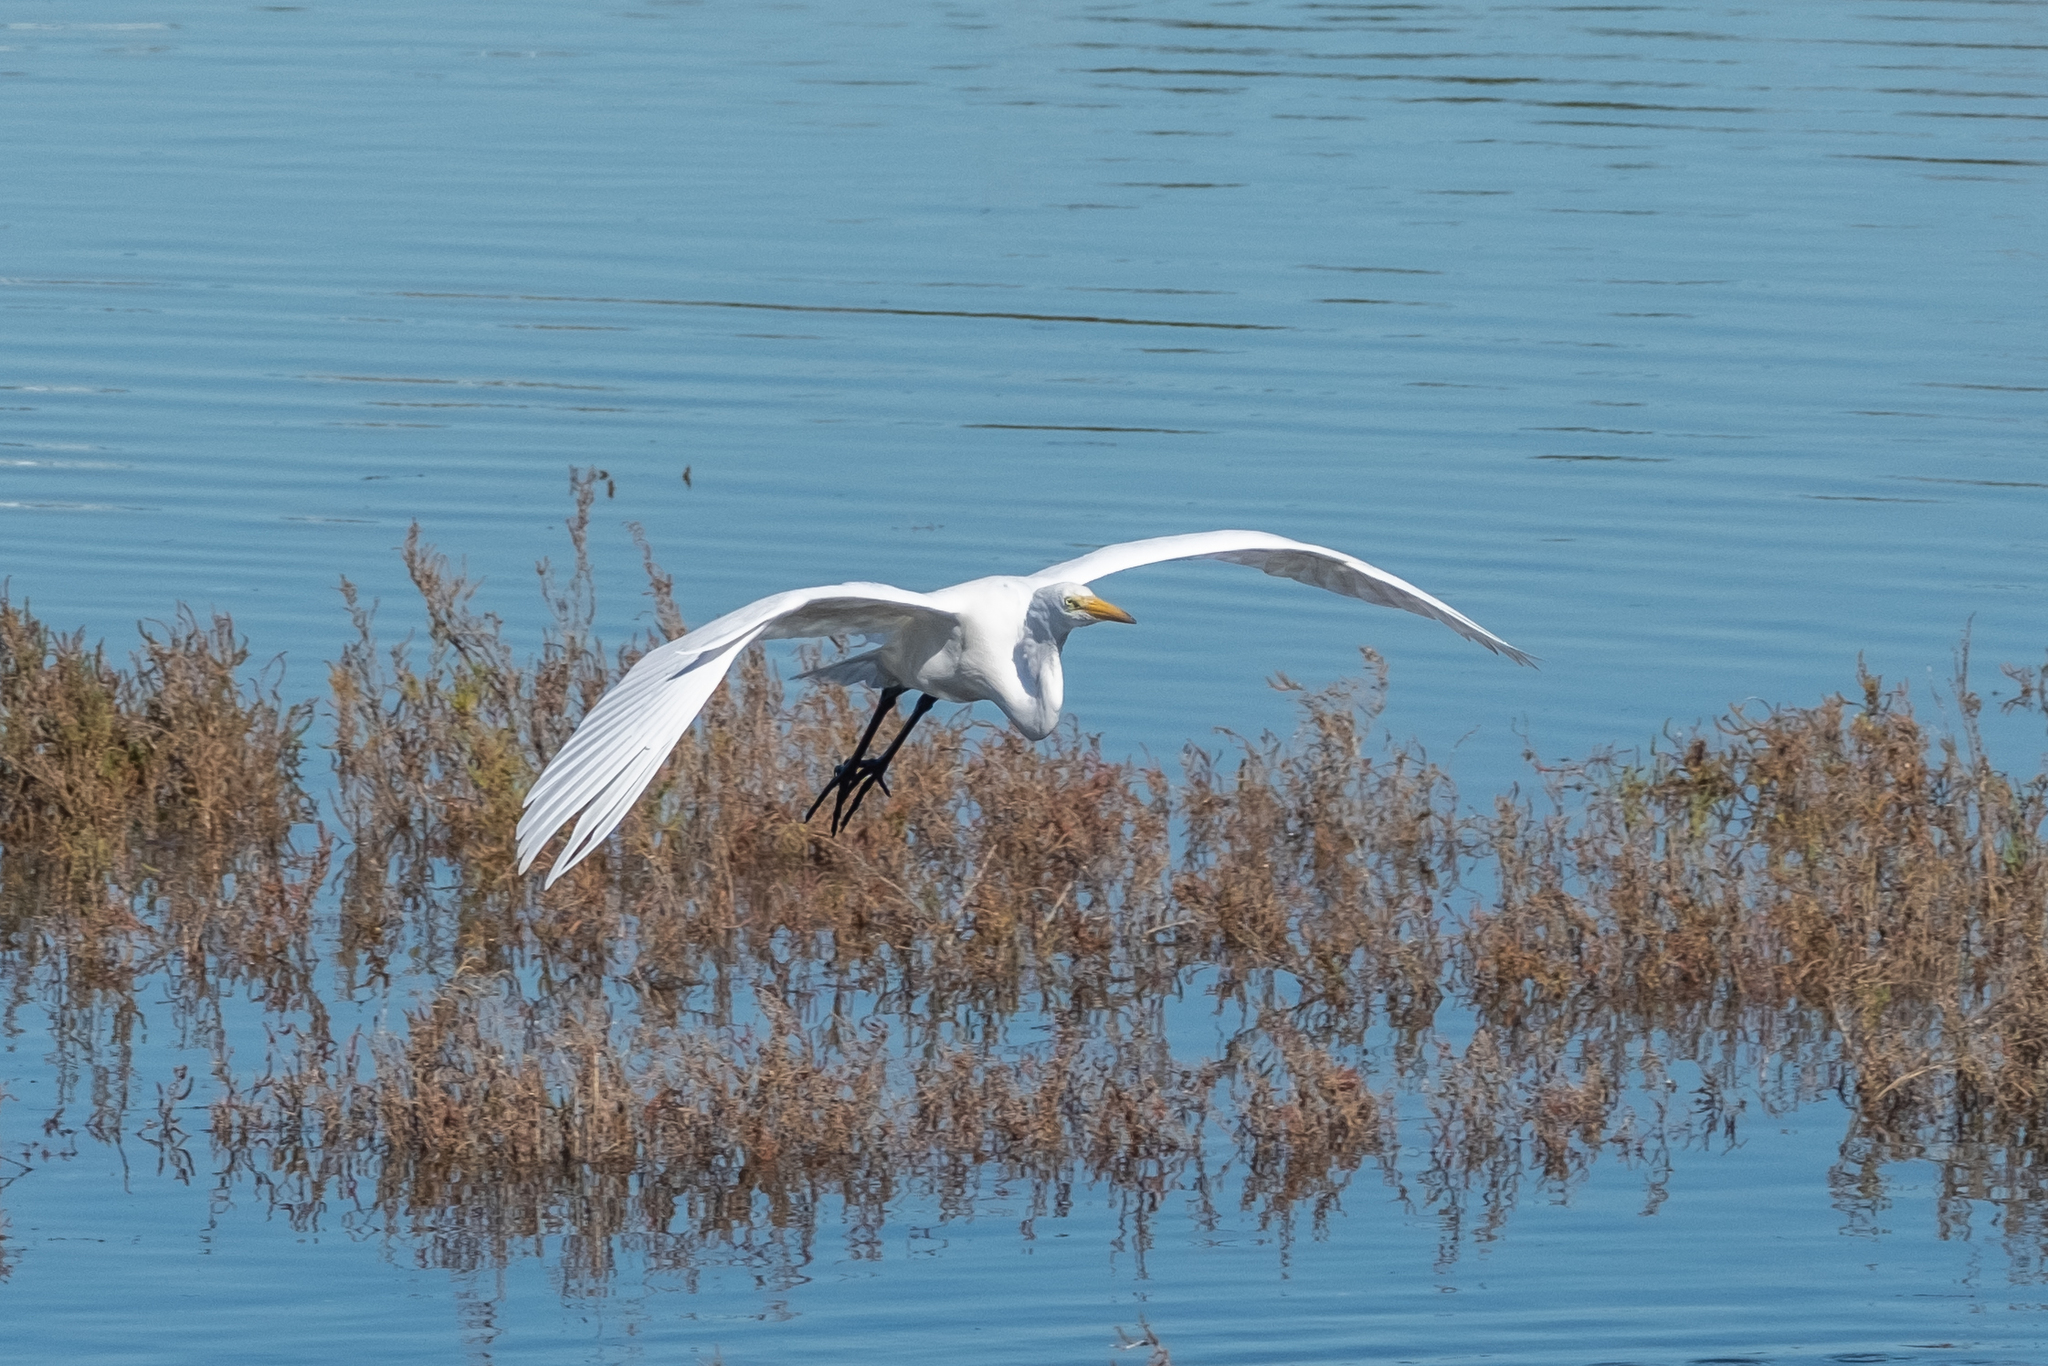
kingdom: Animalia
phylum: Chordata
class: Aves
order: Pelecaniformes
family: Ardeidae
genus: Ardea
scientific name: Ardea alba
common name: Great egret
